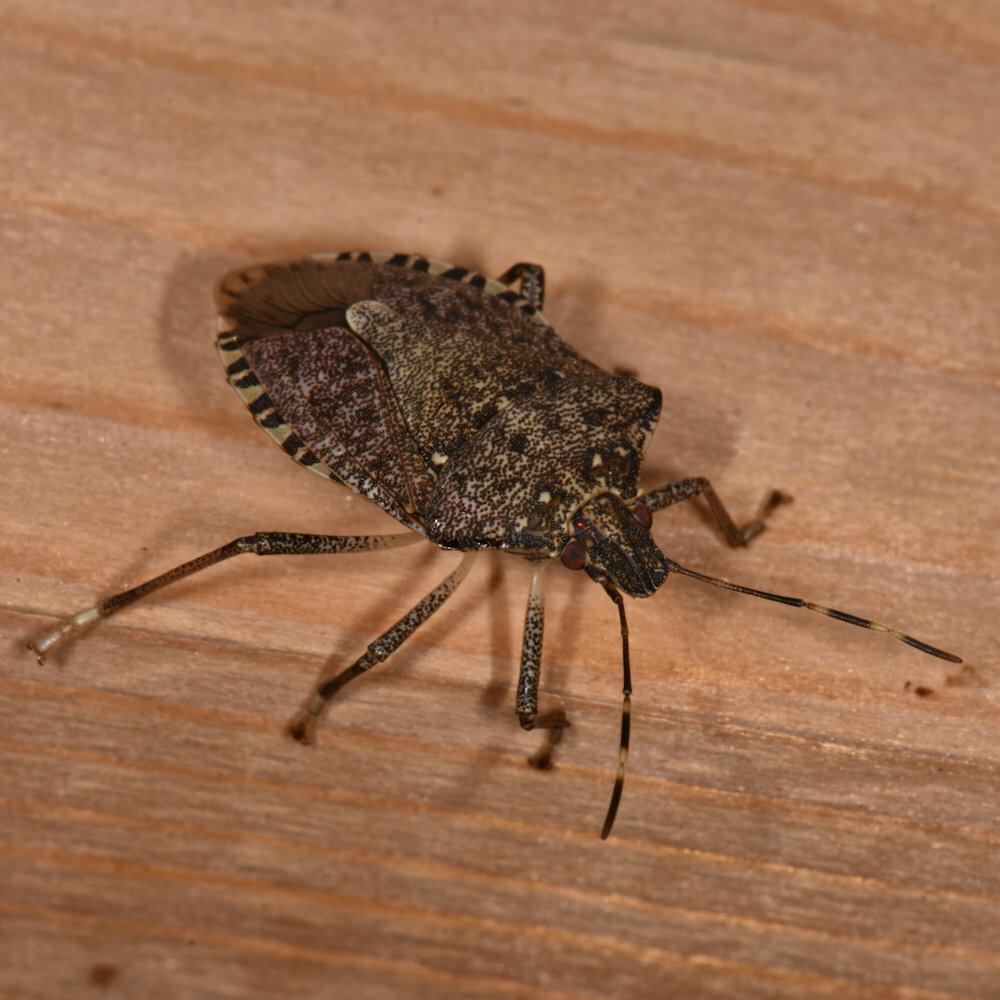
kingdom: Animalia
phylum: Arthropoda
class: Insecta
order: Hemiptera
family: Pentatomidae
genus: Halyomorpha
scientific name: Halyomorpha halys
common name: Brown marmorated stink bug
